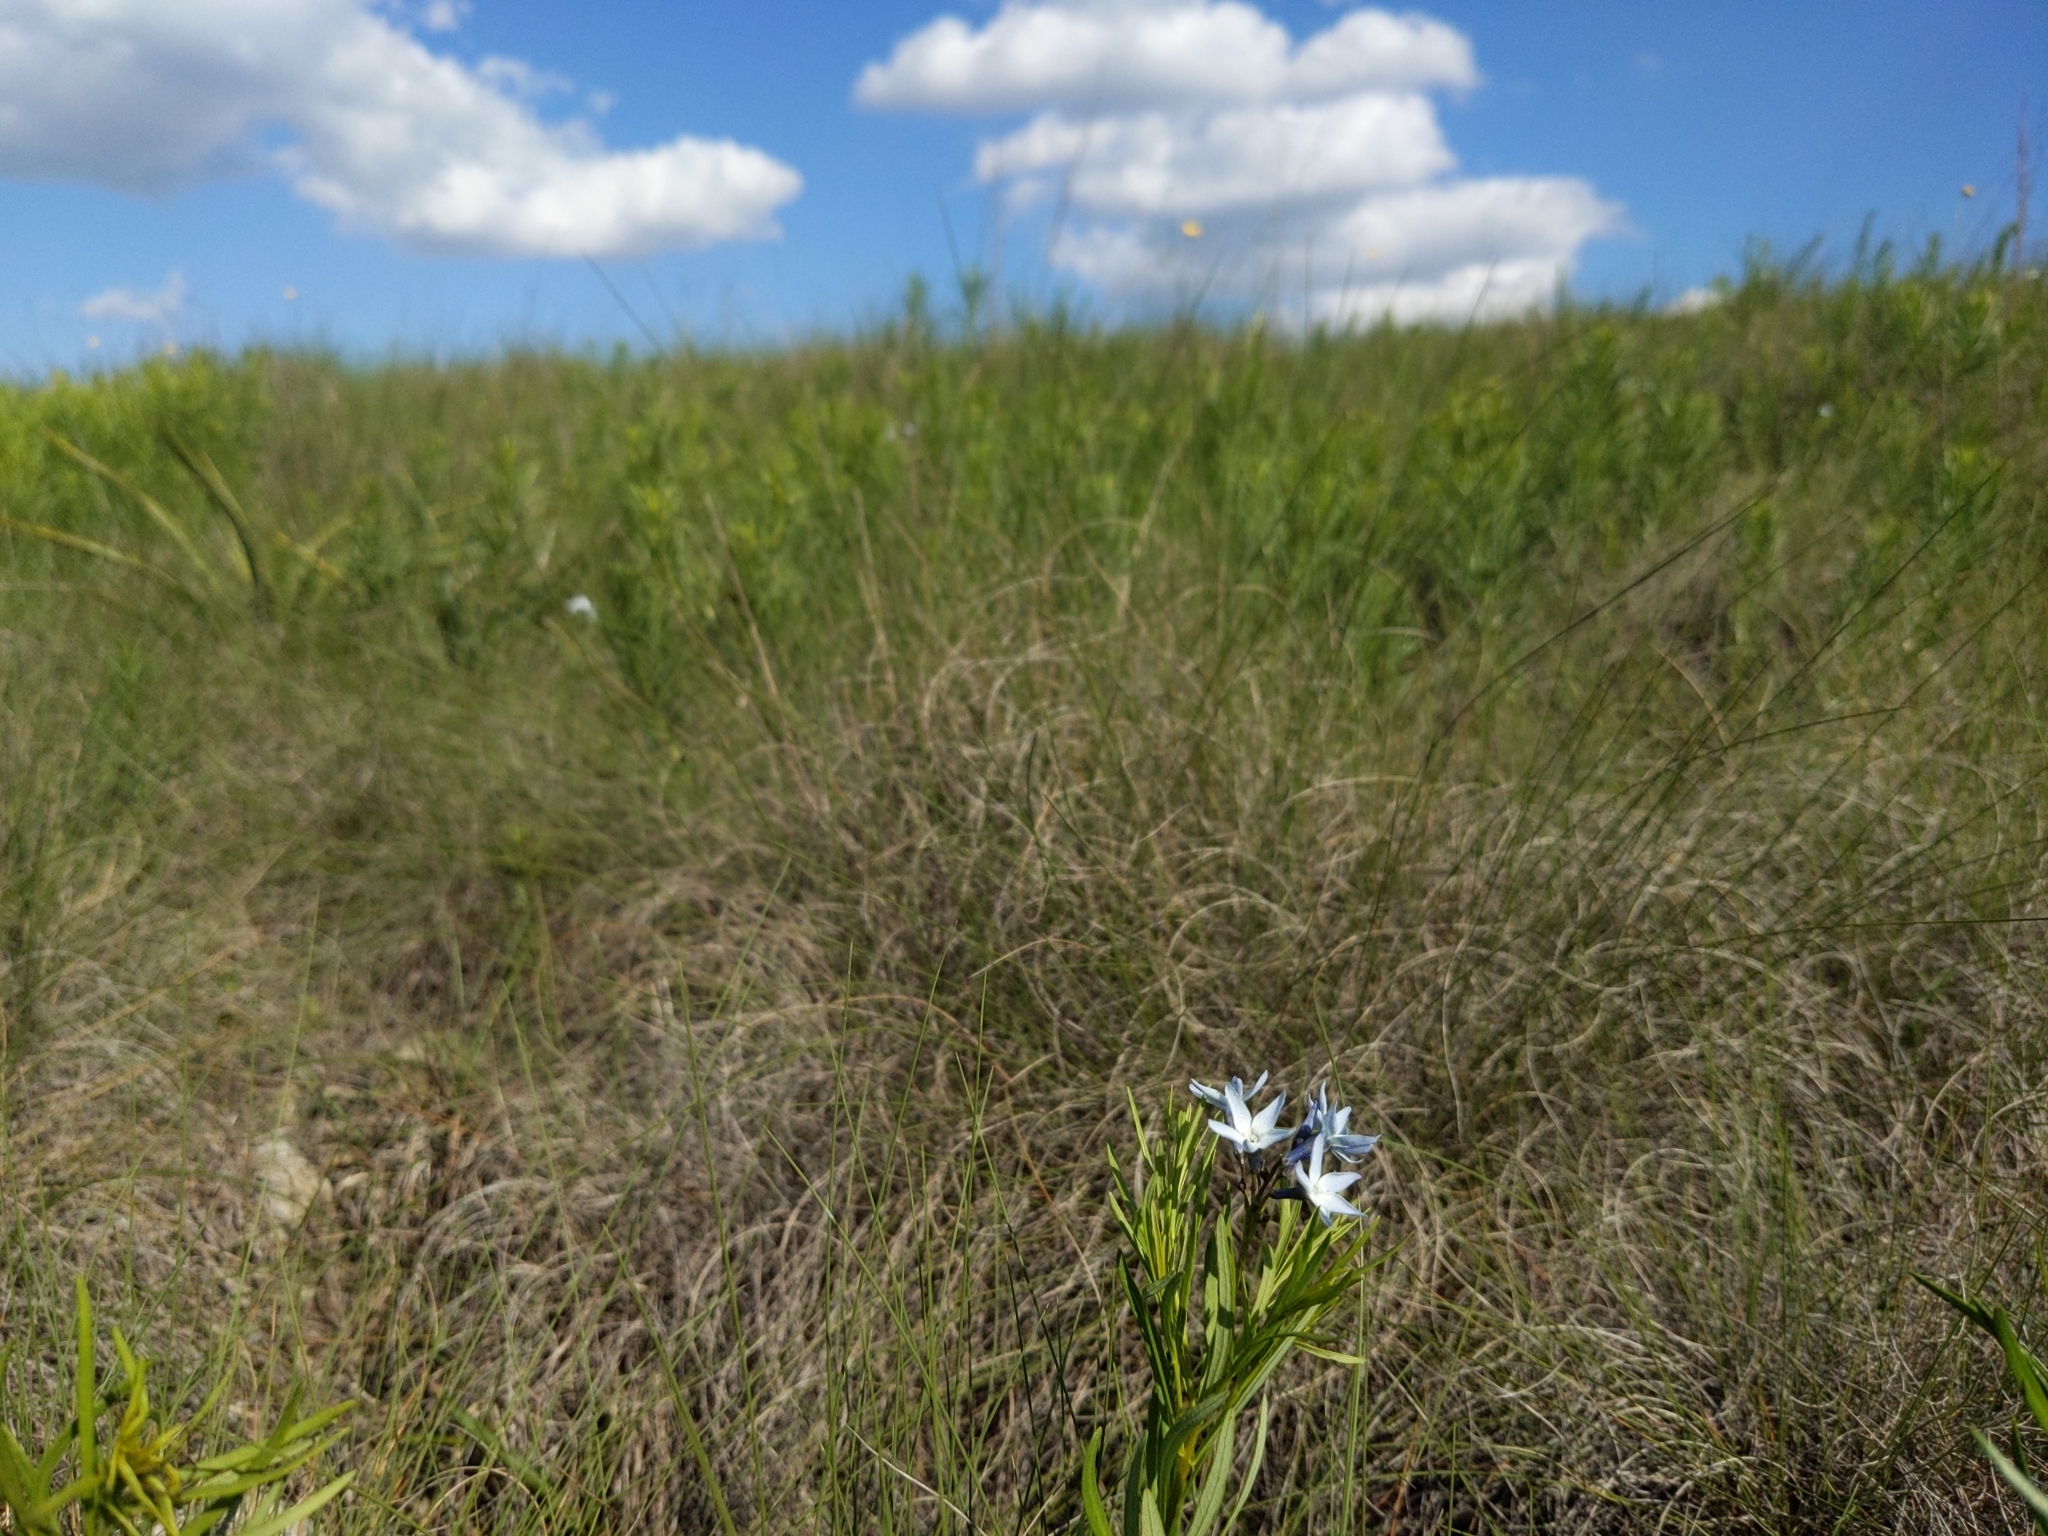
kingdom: Plantae
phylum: Tracheophyta
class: Magnoliopsida
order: Gentianales
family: Apocynaceae
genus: Amsonia
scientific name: Amsonia ciliata
